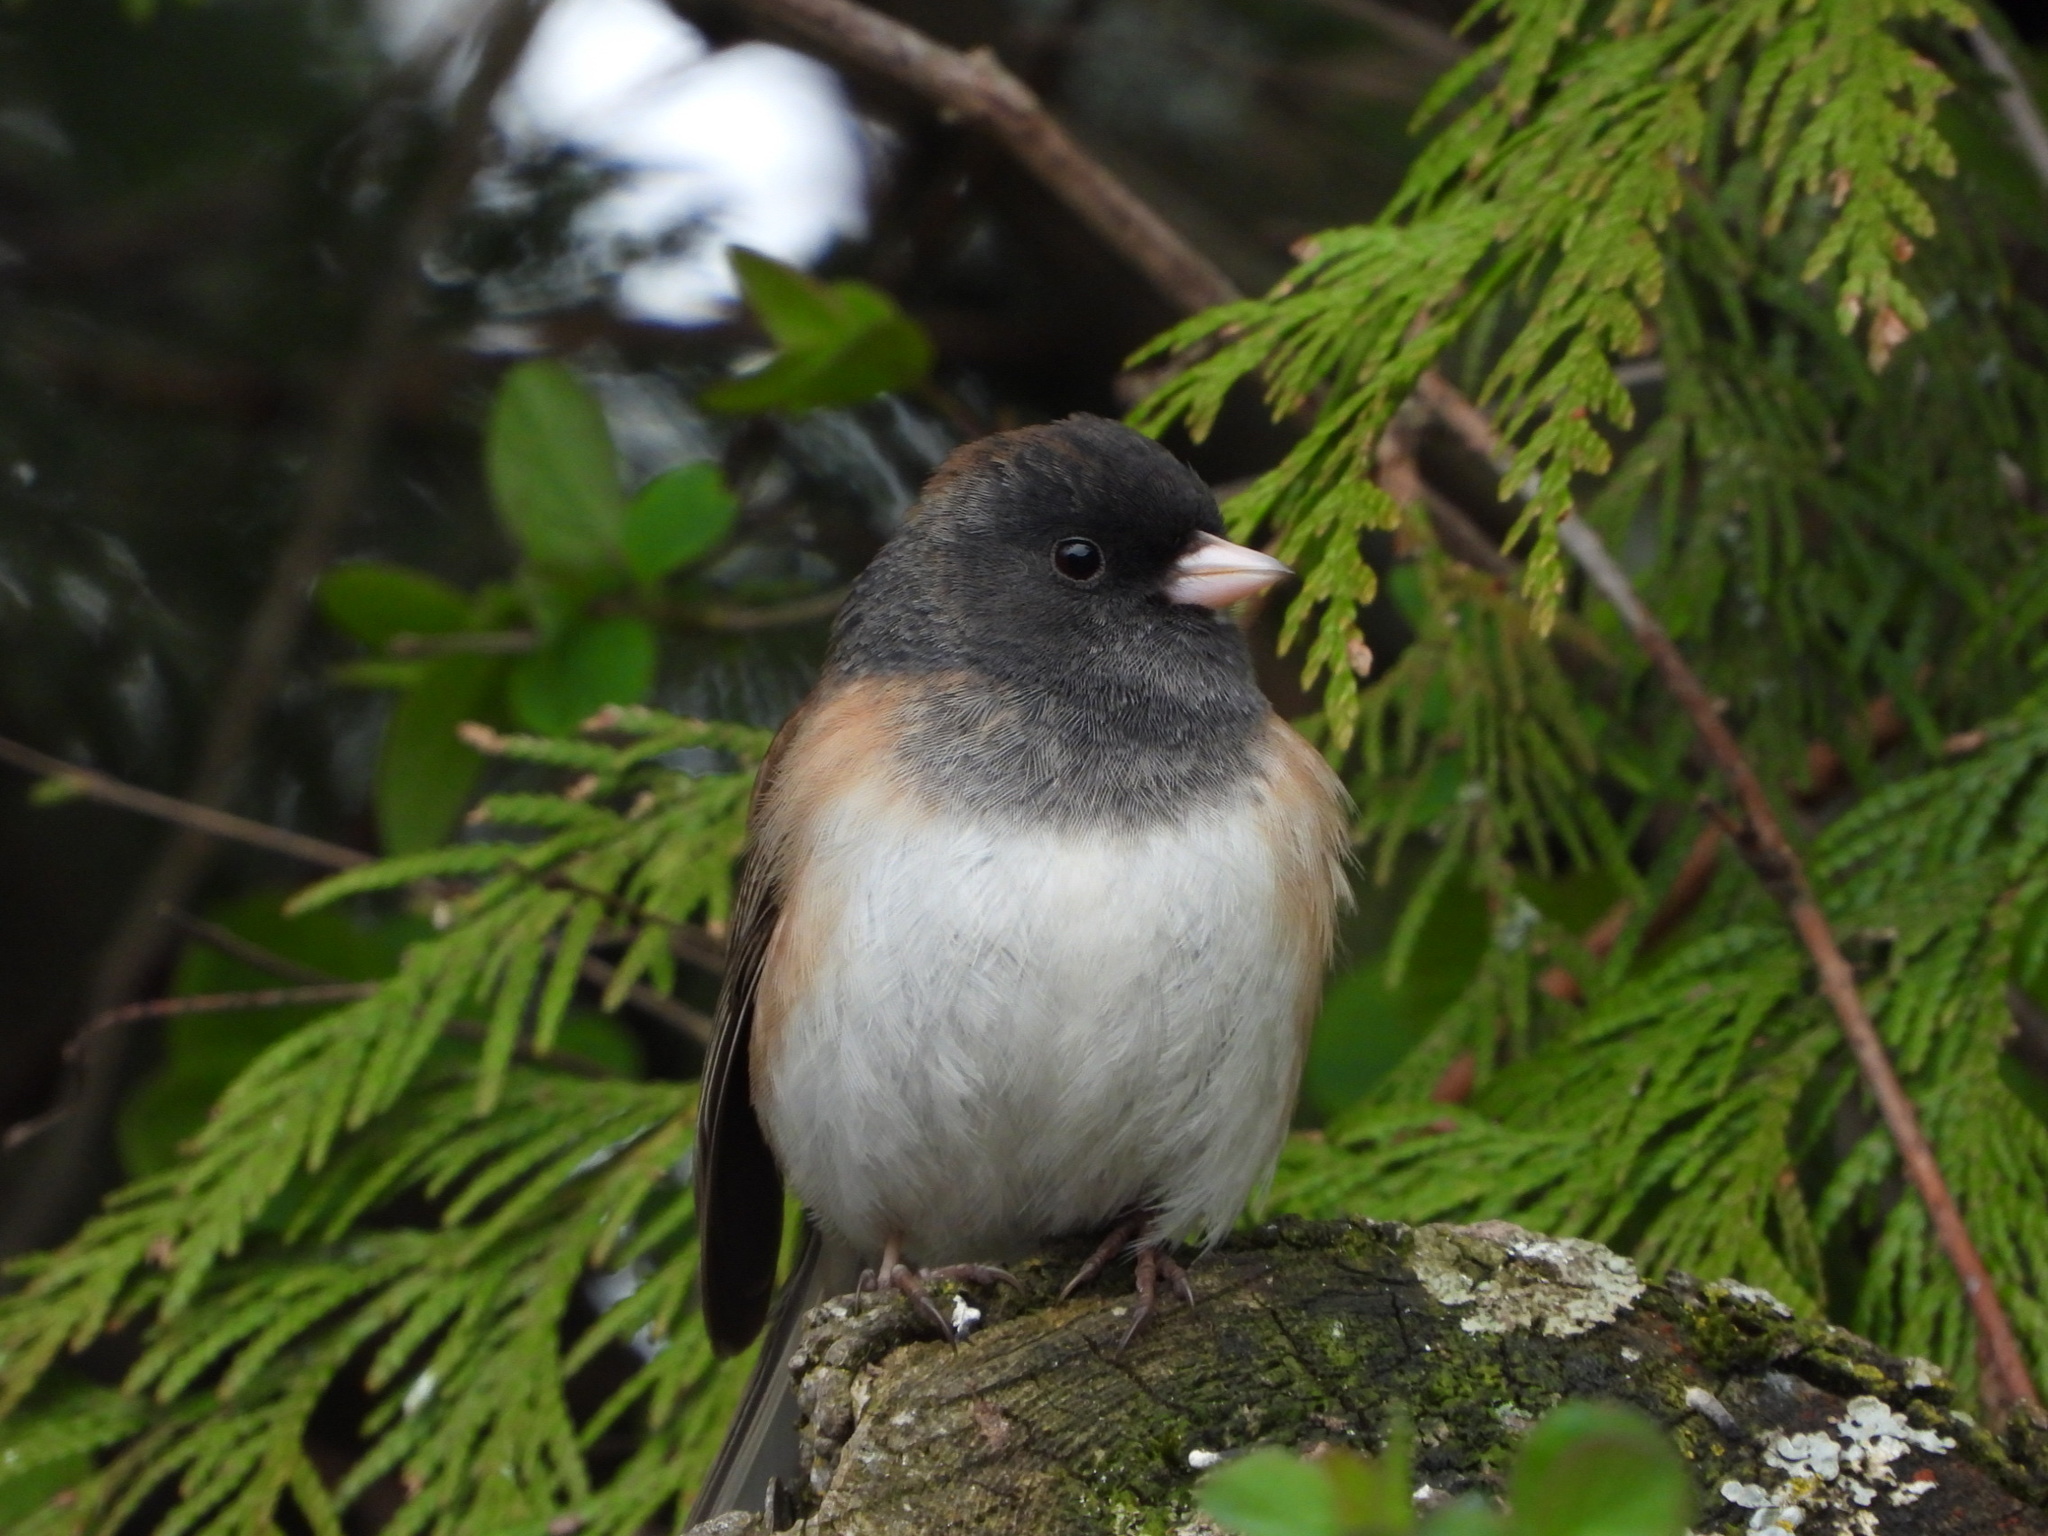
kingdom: Animalia
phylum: Chordata
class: Aves
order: Passeriformes
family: Passerellidae
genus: Junco
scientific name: Junco hyemalis
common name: Dark-eyed junco
